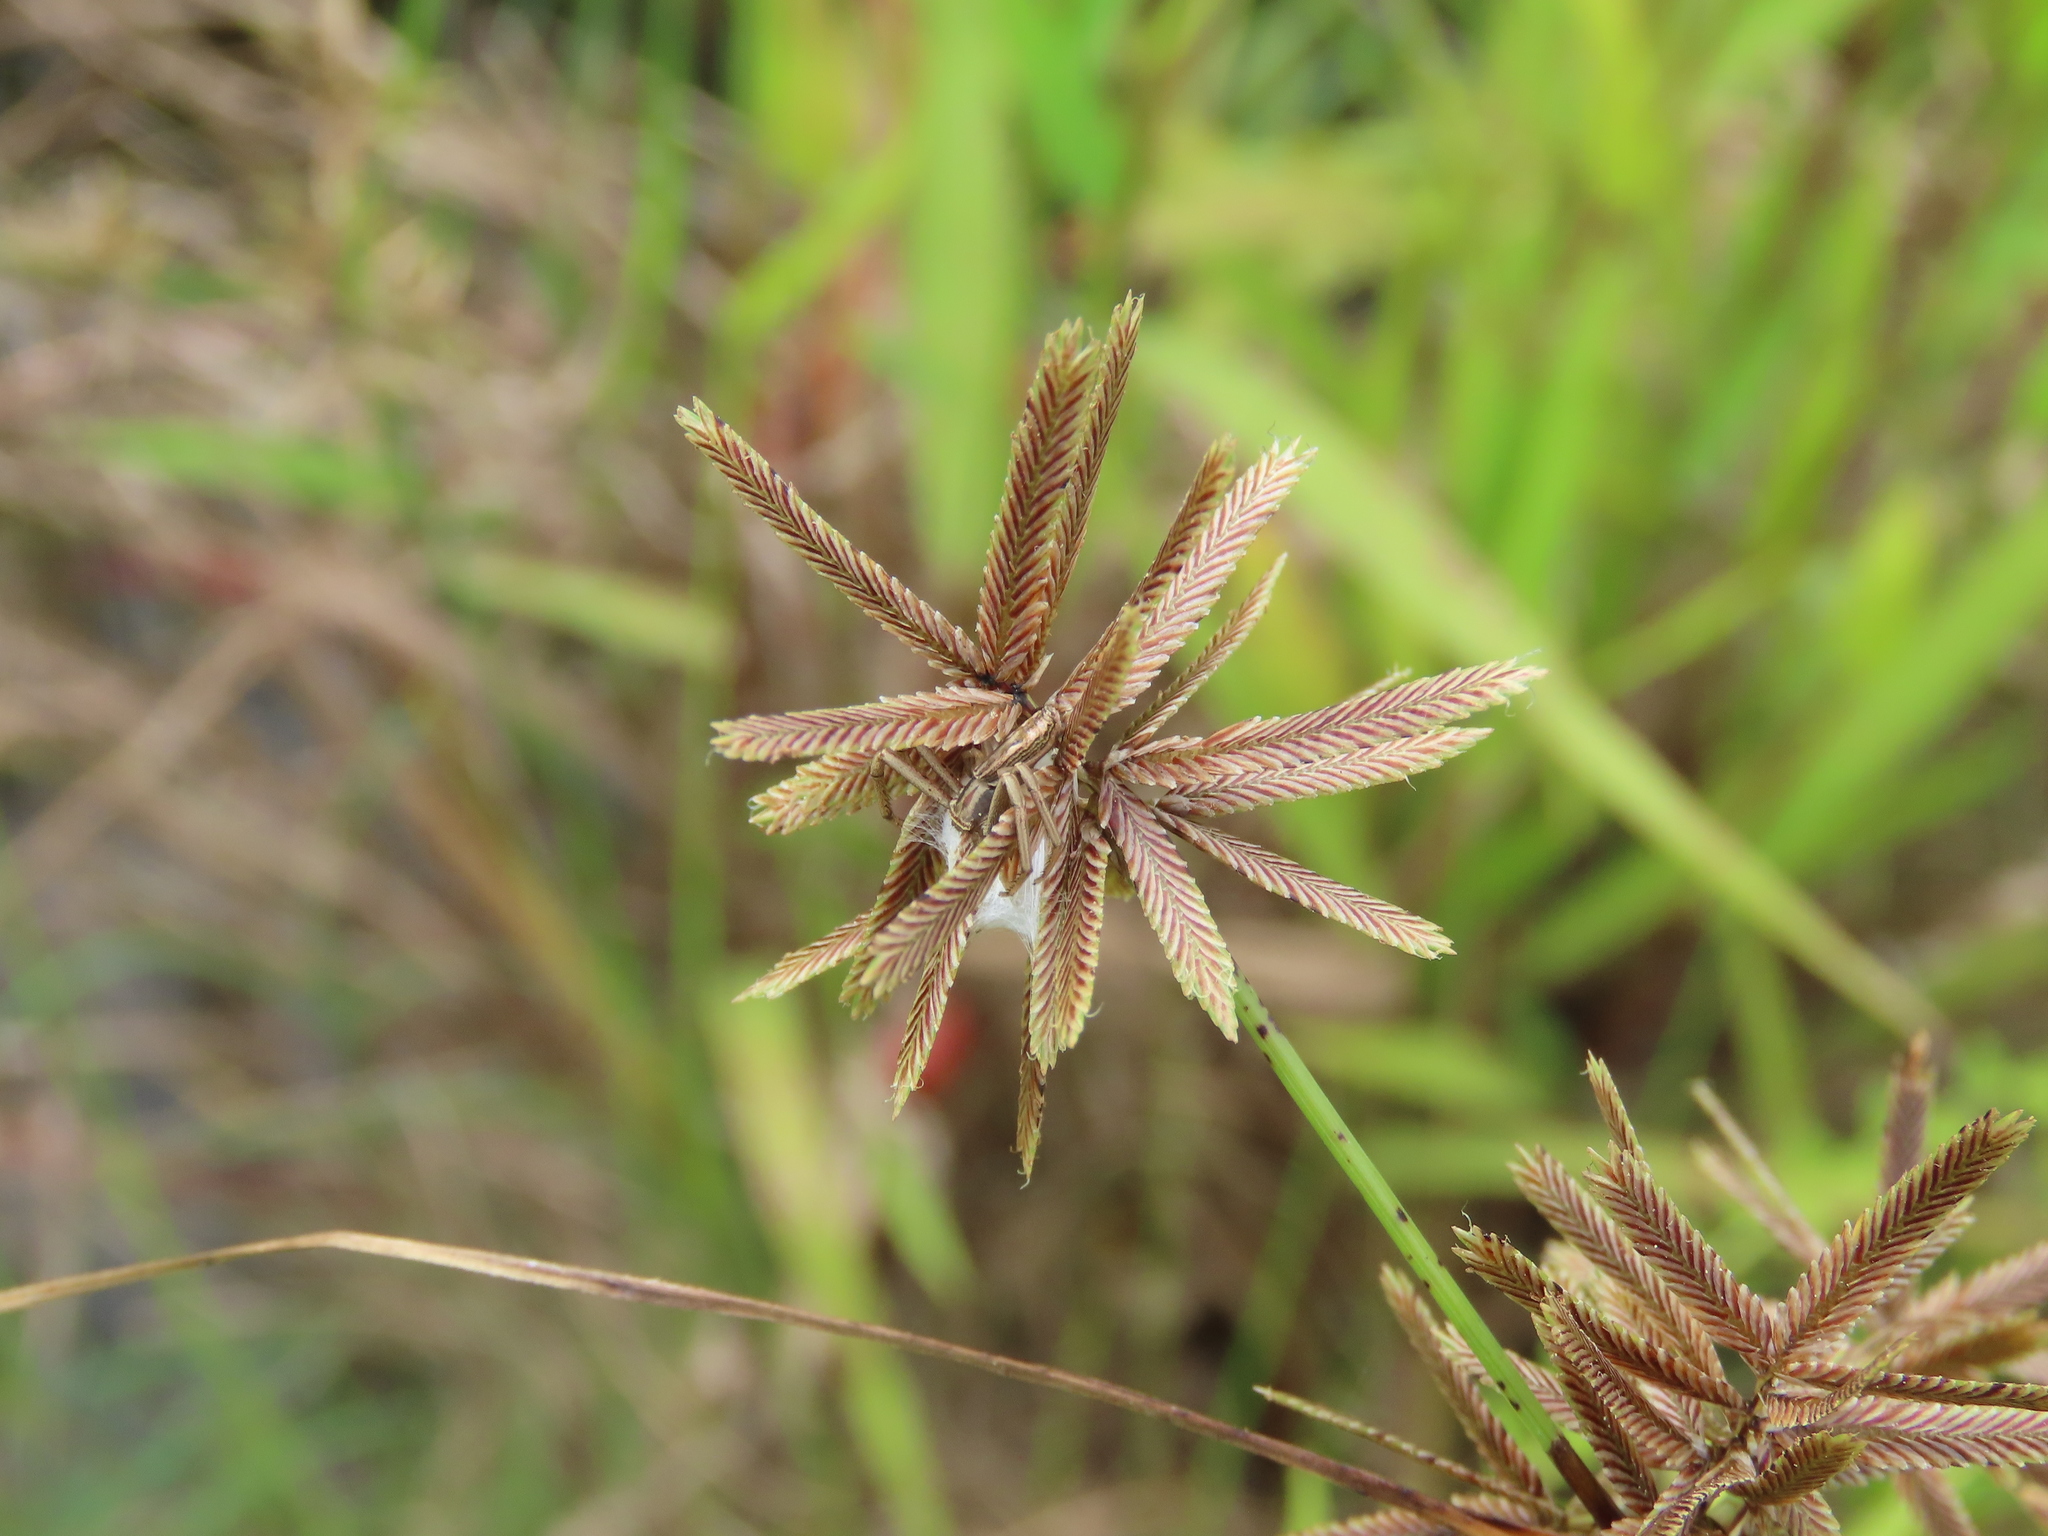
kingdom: Plantae
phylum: Tracheophyta
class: Liliopsida
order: Poales
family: Cyperaceae
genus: Cyperus
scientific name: Cyperus flavidus
